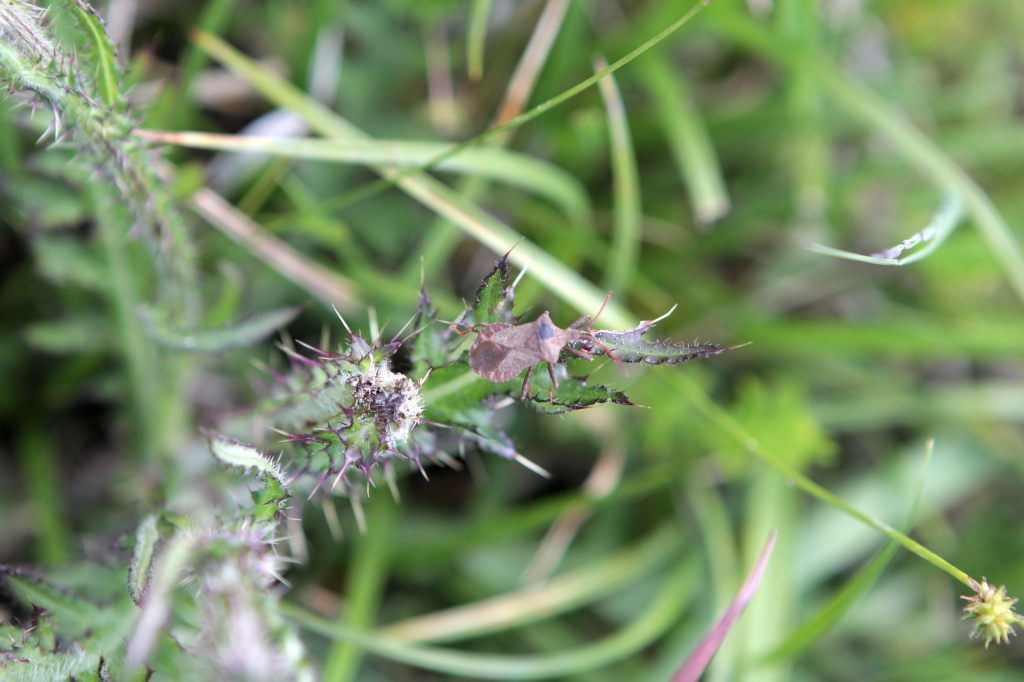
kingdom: Animalia
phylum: Arthropoda
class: Insecta
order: Hemiptera
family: Coreidae
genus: Coreus
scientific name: Coreus marginatus
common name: Dock bug
